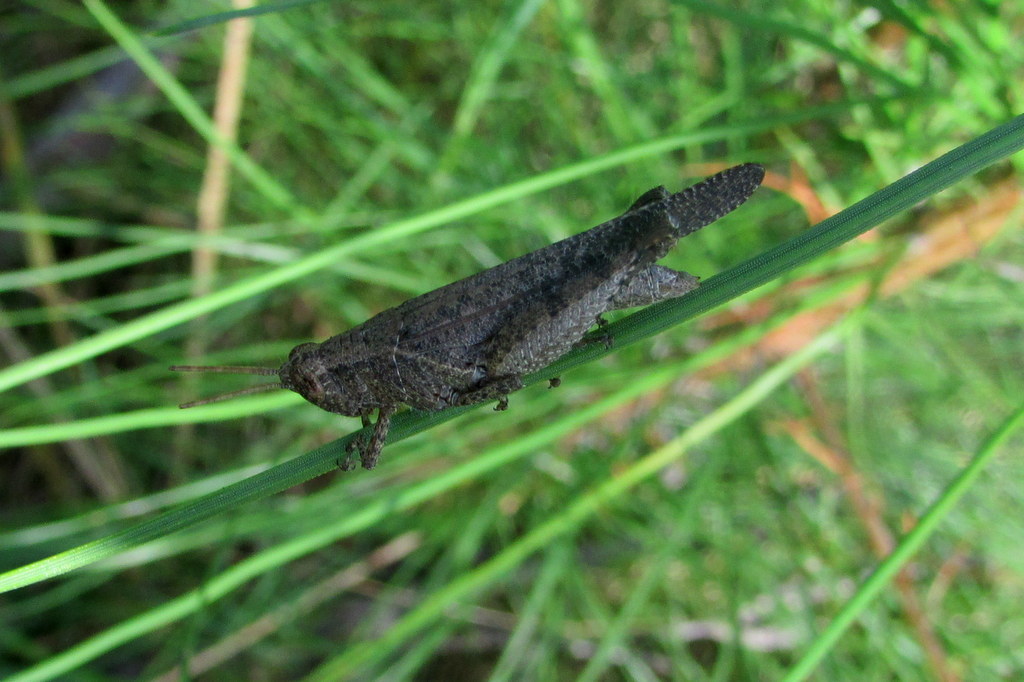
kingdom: Animalia
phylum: Arthropoda
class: Insecta
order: Orthoptera
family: Acrididae
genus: Abracris
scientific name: Abracris dilecta
